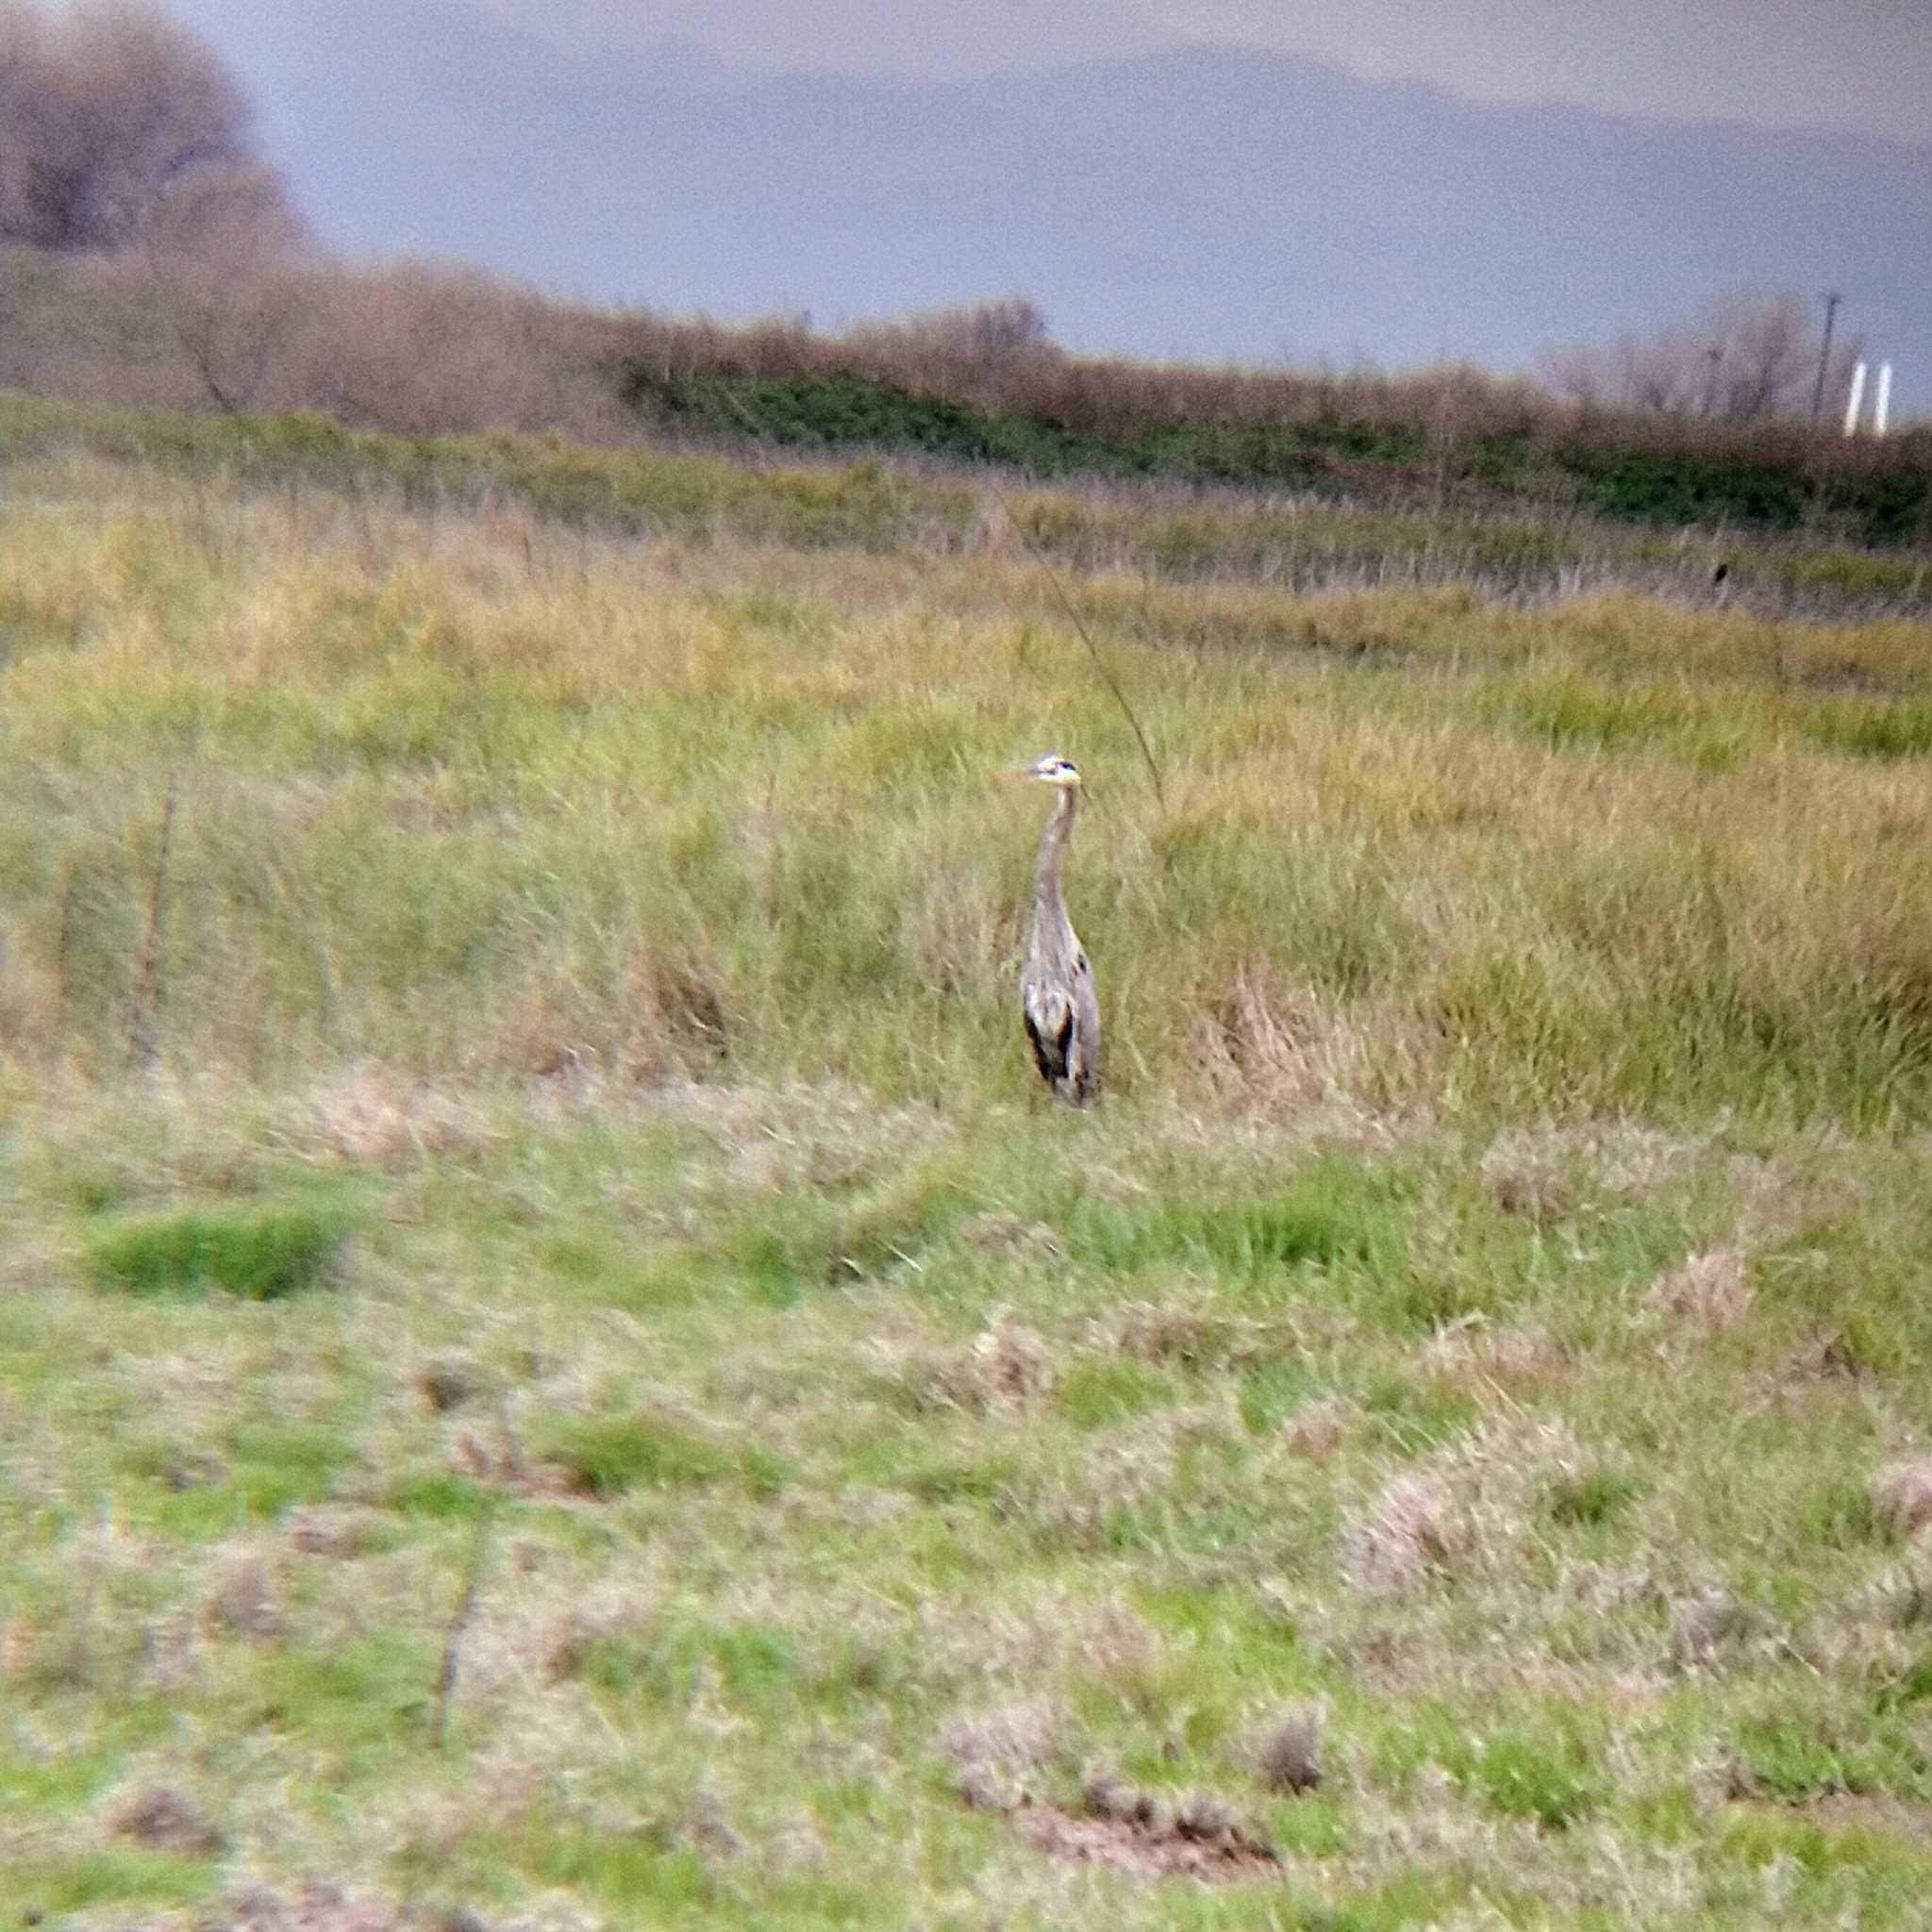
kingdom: Animalia
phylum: Chordata
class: Aves
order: Pelecaniformes
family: Ardeidae
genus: Ardea
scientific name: Ardea herodias
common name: Great blue heron
